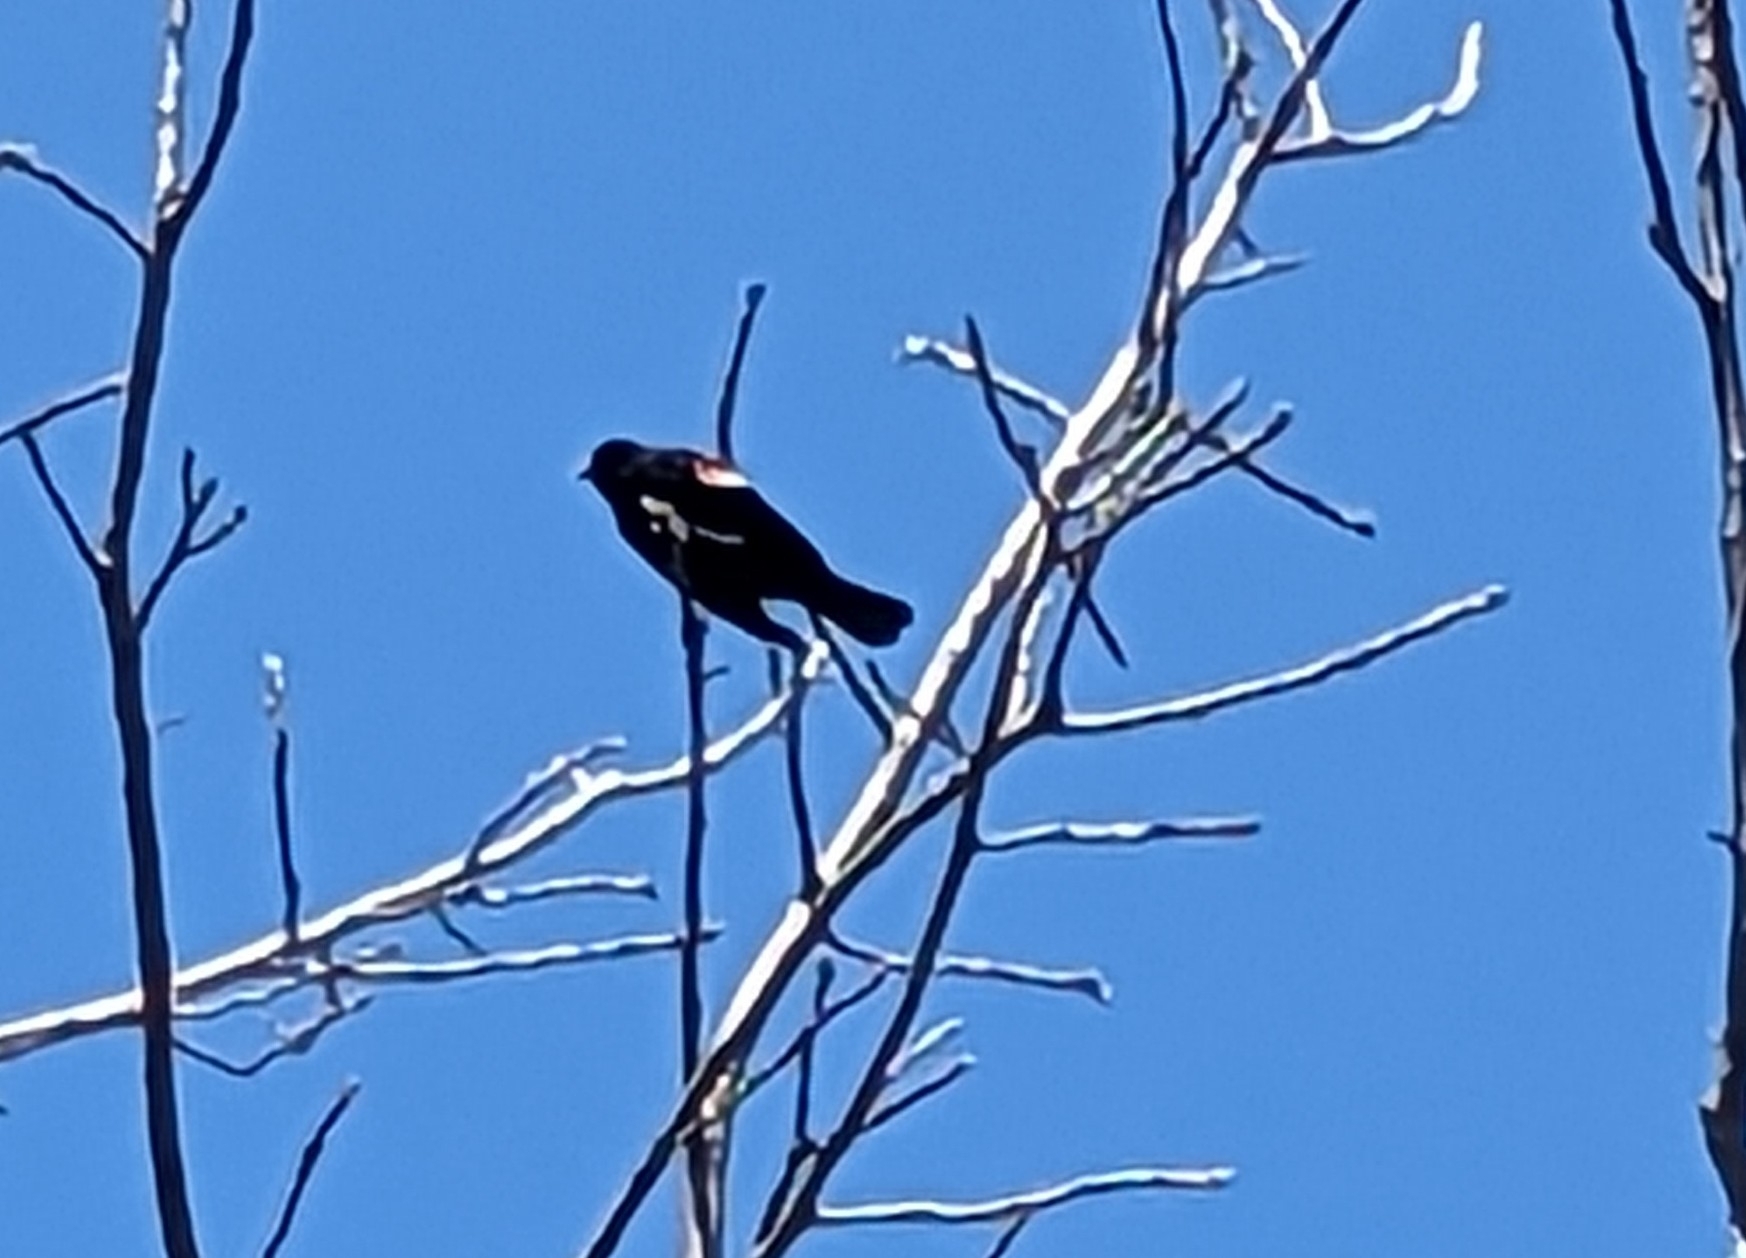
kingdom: Animalia
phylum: Chordata
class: Aves
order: Passeriformes
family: Icteridae
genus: Agelaius
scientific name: Agelaius phoeniceus
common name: Red-winged blackbird
